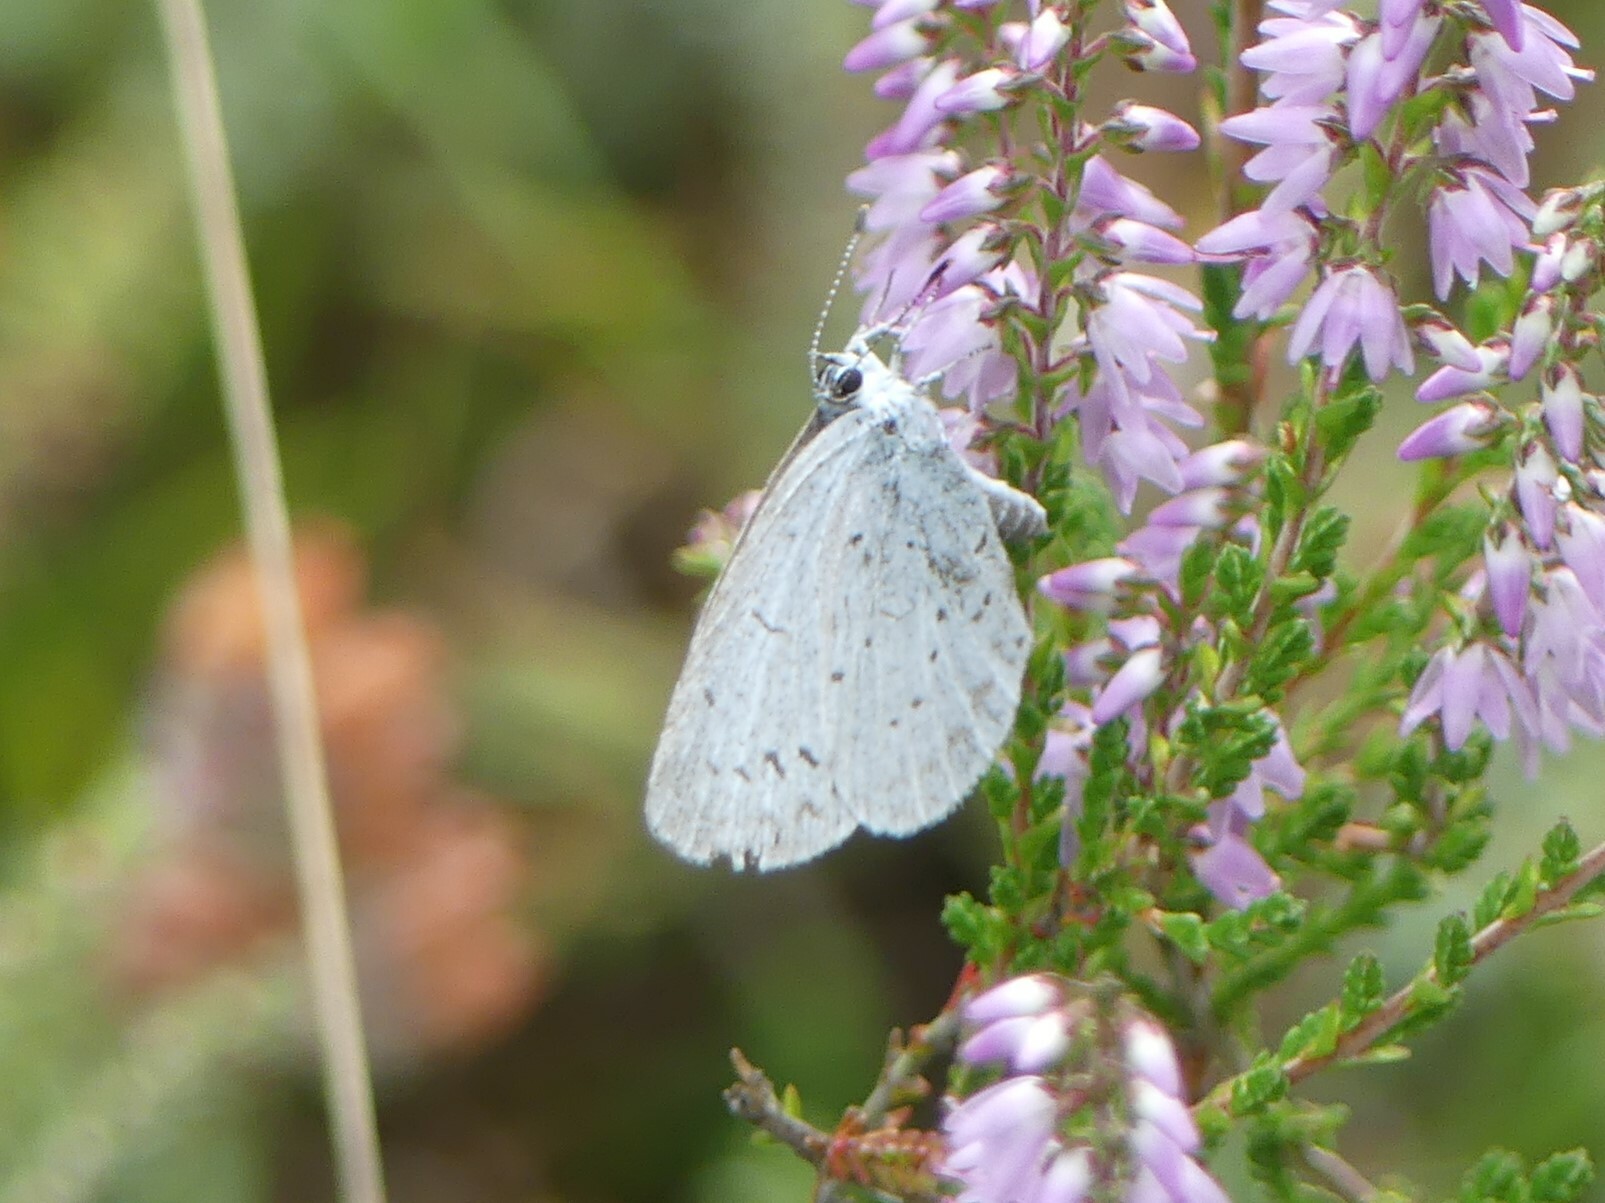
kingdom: Animalia
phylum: Arthropoda
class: Insecta
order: Lepidoptera
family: Lycaenidae
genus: Celastrina
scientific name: Celastrina argiolus
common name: Holly blue
